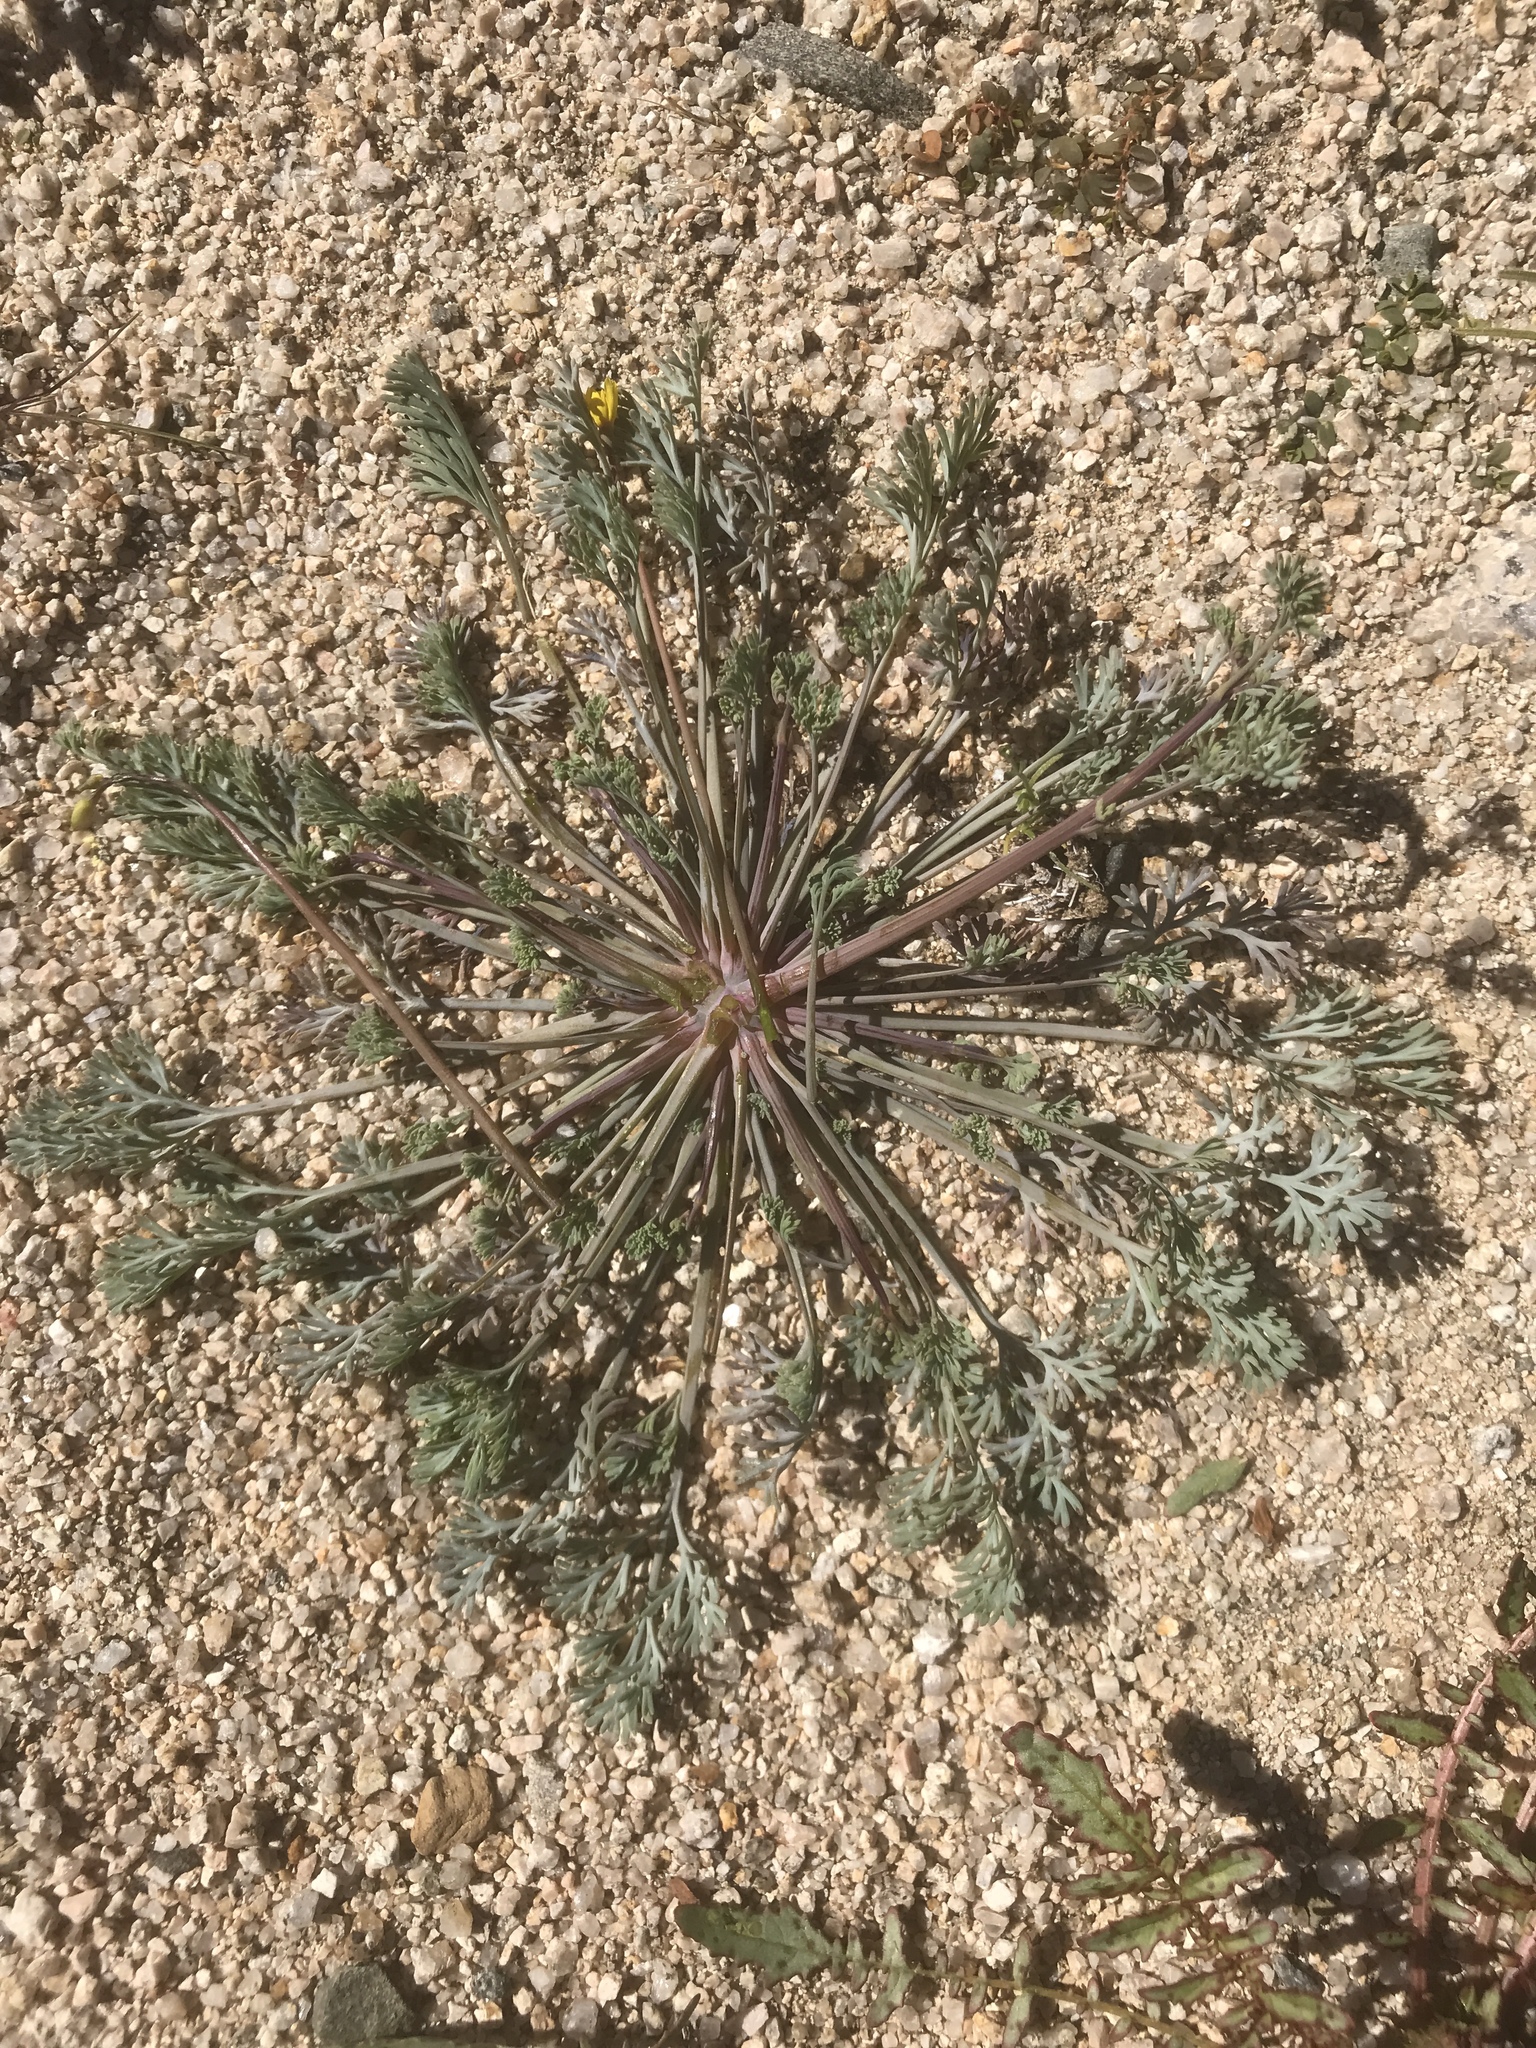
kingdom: Plantae
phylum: Tracheophyta
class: Magnoliopsida
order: Ranunculales
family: Papaveraceae
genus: Eschscholzia
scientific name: Eschscholzia minutiflora
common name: Small-flower california-poppy
